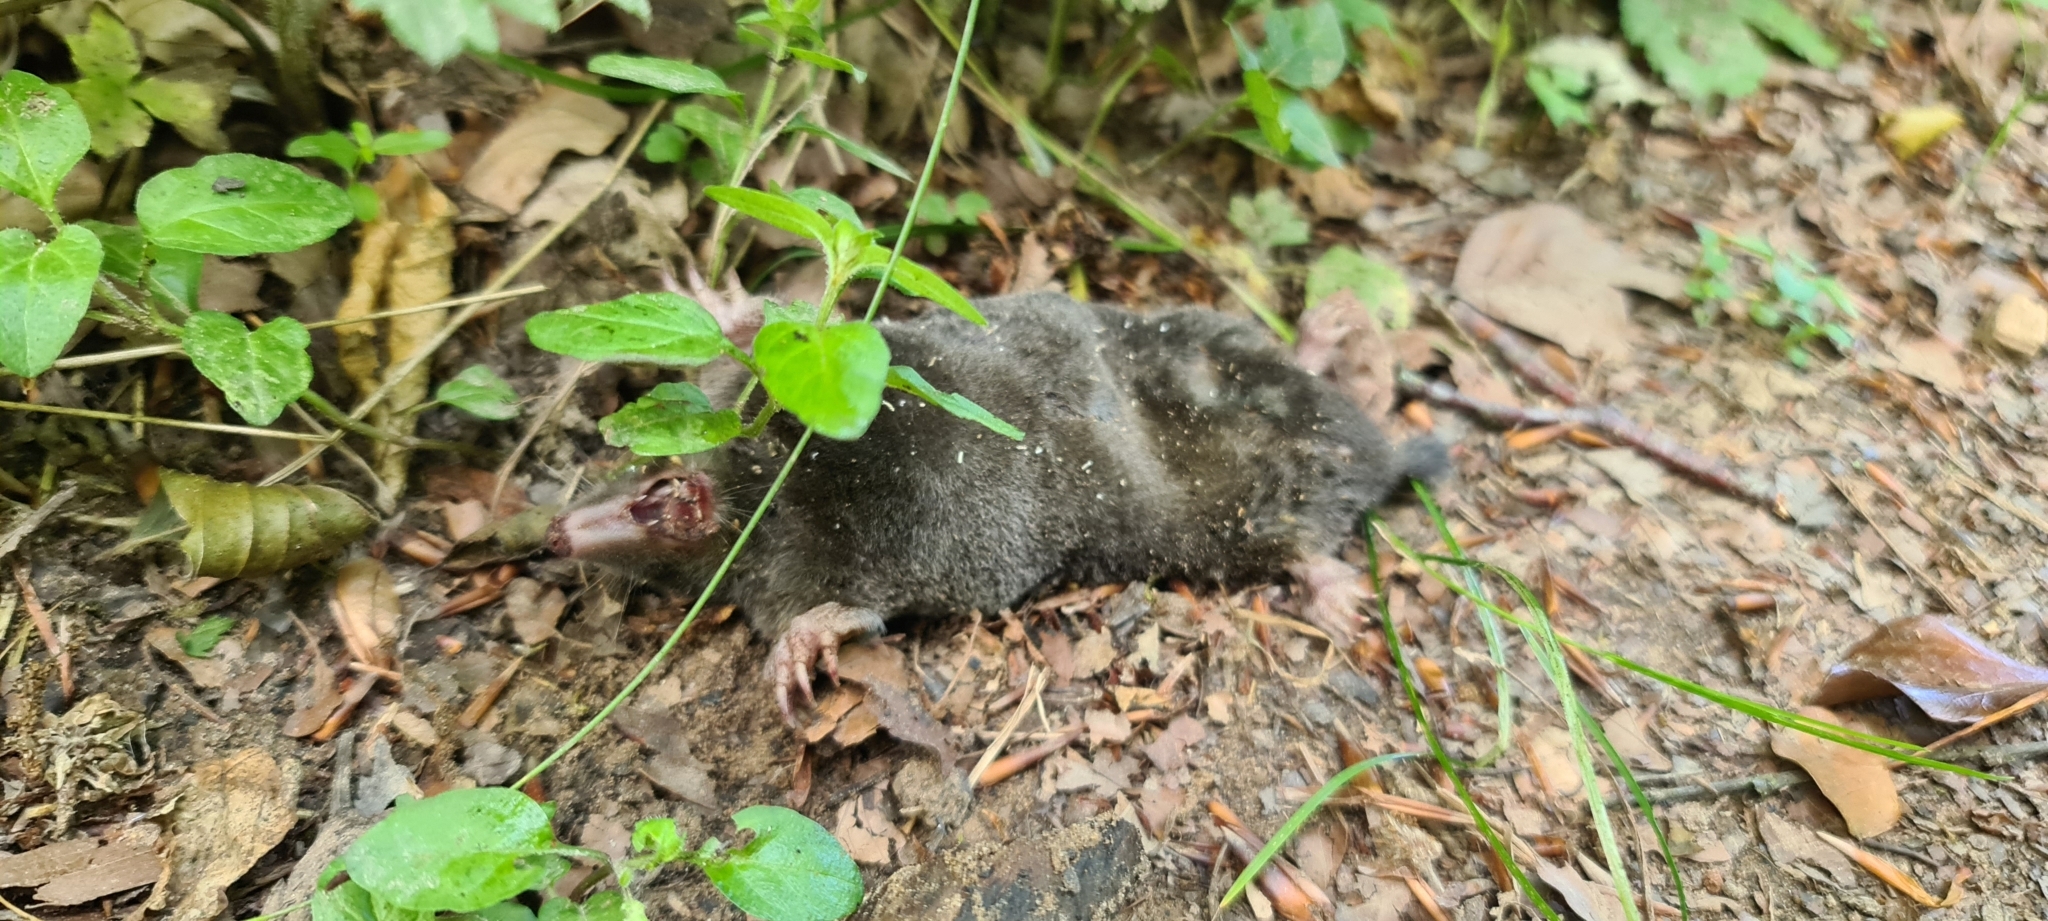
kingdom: Animalia
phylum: Chordata
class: Mammalia
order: Soricomorpha
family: Talpidae
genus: Talpa
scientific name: Talpa europaea
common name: European mole
